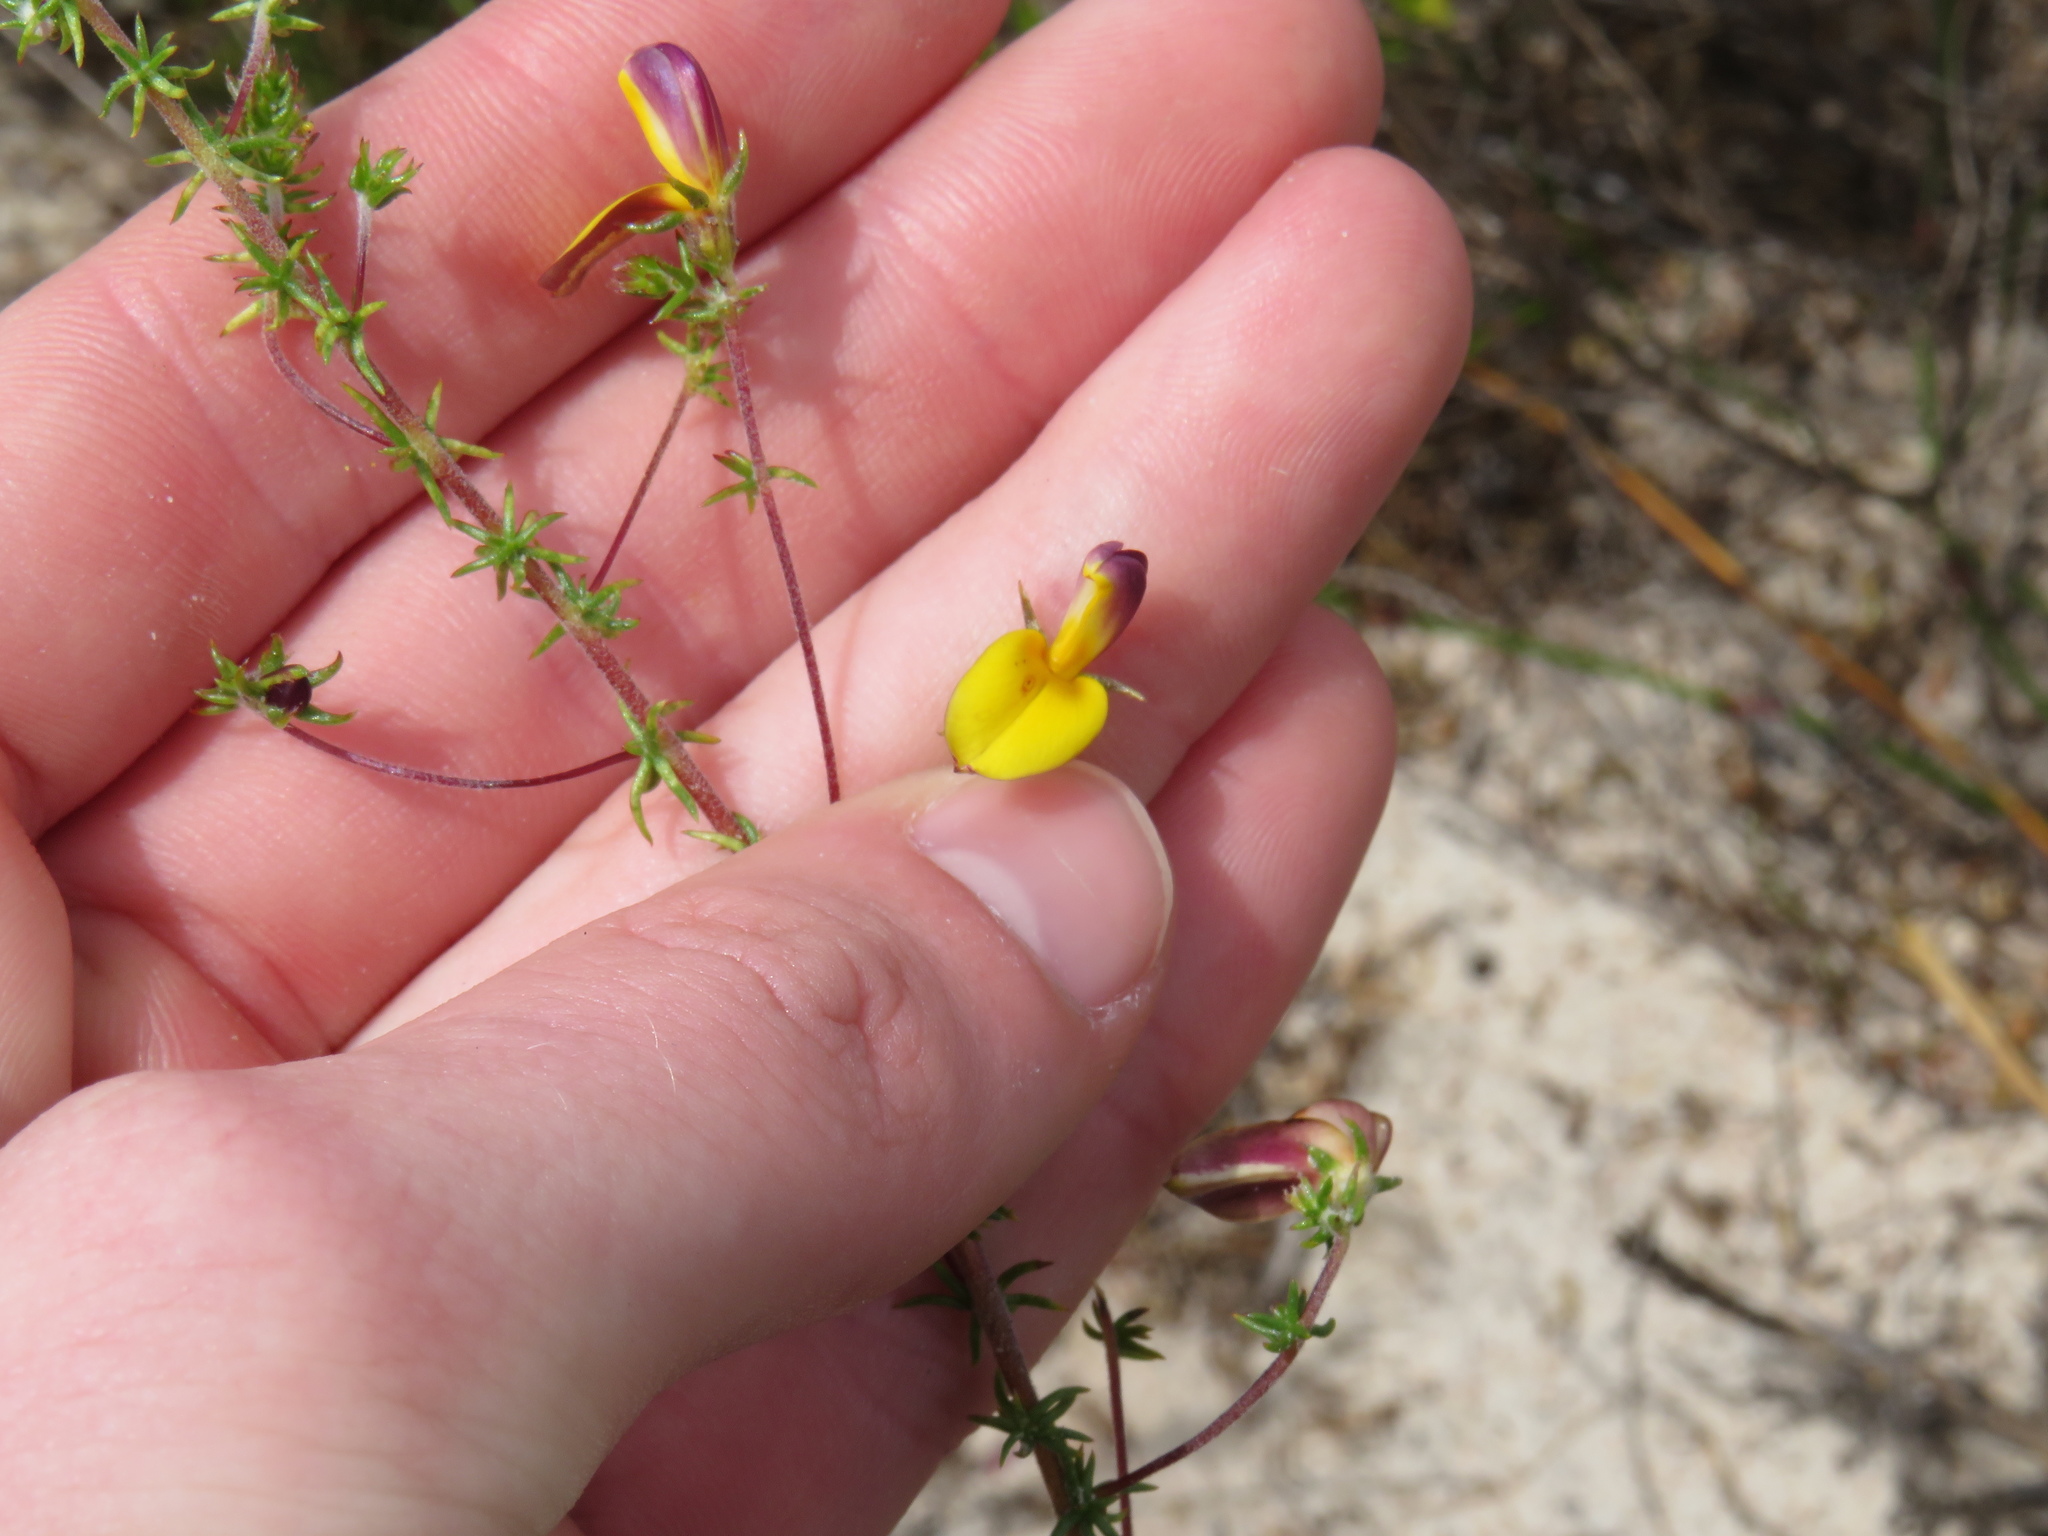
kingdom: Plantae
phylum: Tracheophyta
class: Magnoliopsida
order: Fabales
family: Fabaceae
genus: Aspalathus
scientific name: Aspalathus retroflexa
